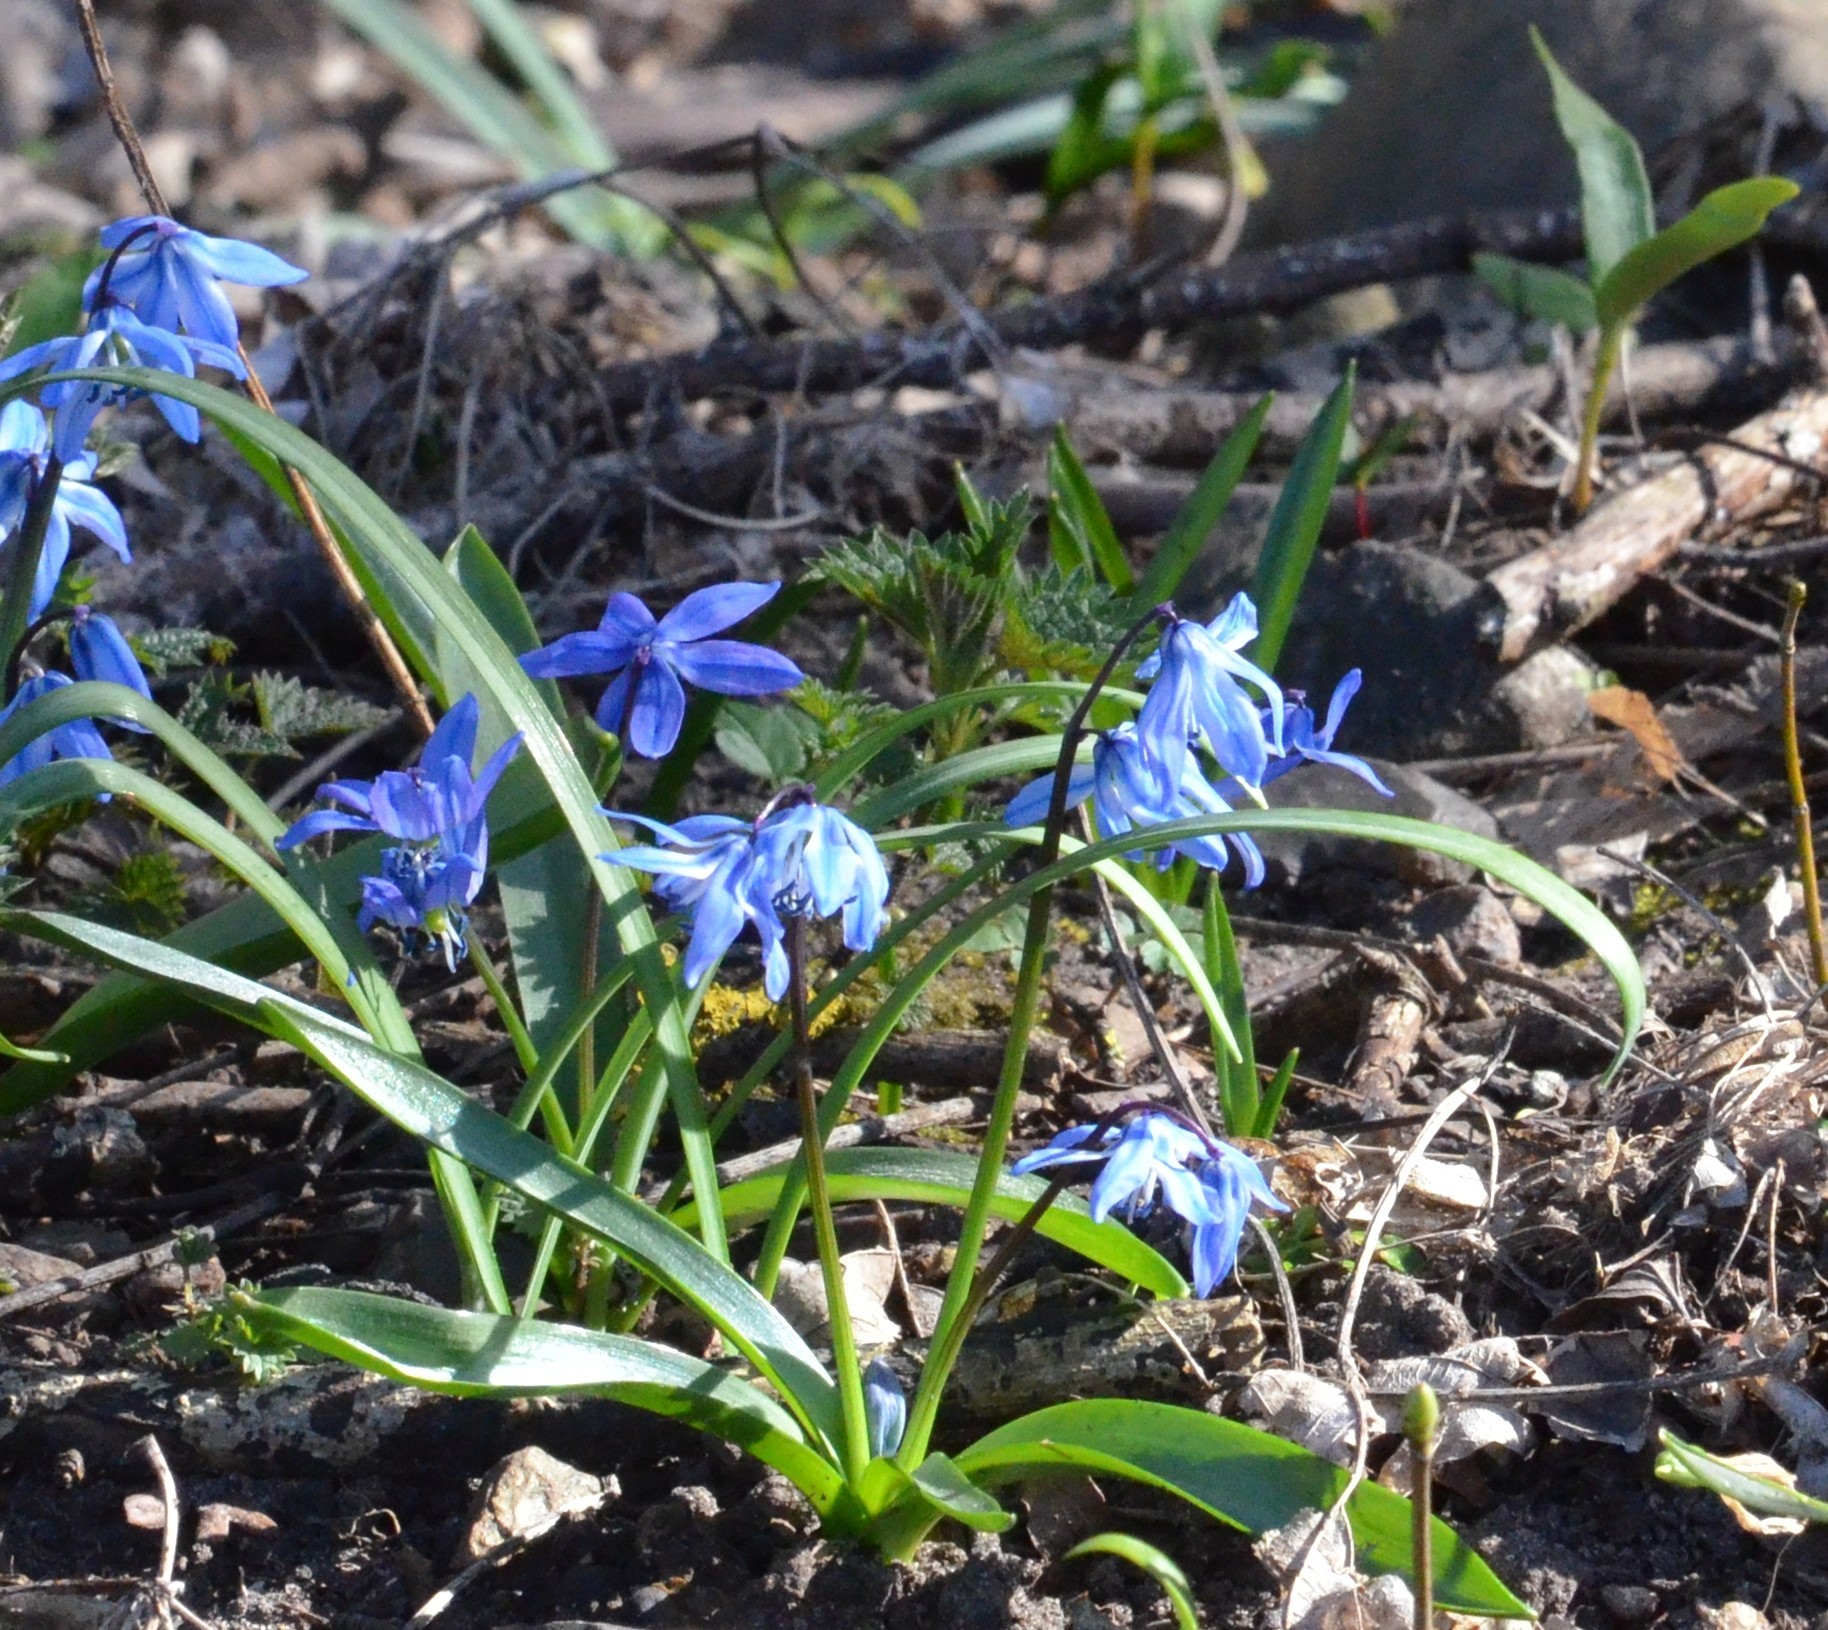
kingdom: Plantae
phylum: Tracheophyta
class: Liliopsida
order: Asparagales
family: Asparagaceae
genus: Scilla
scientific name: Scilla siberica
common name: Siberian squill
